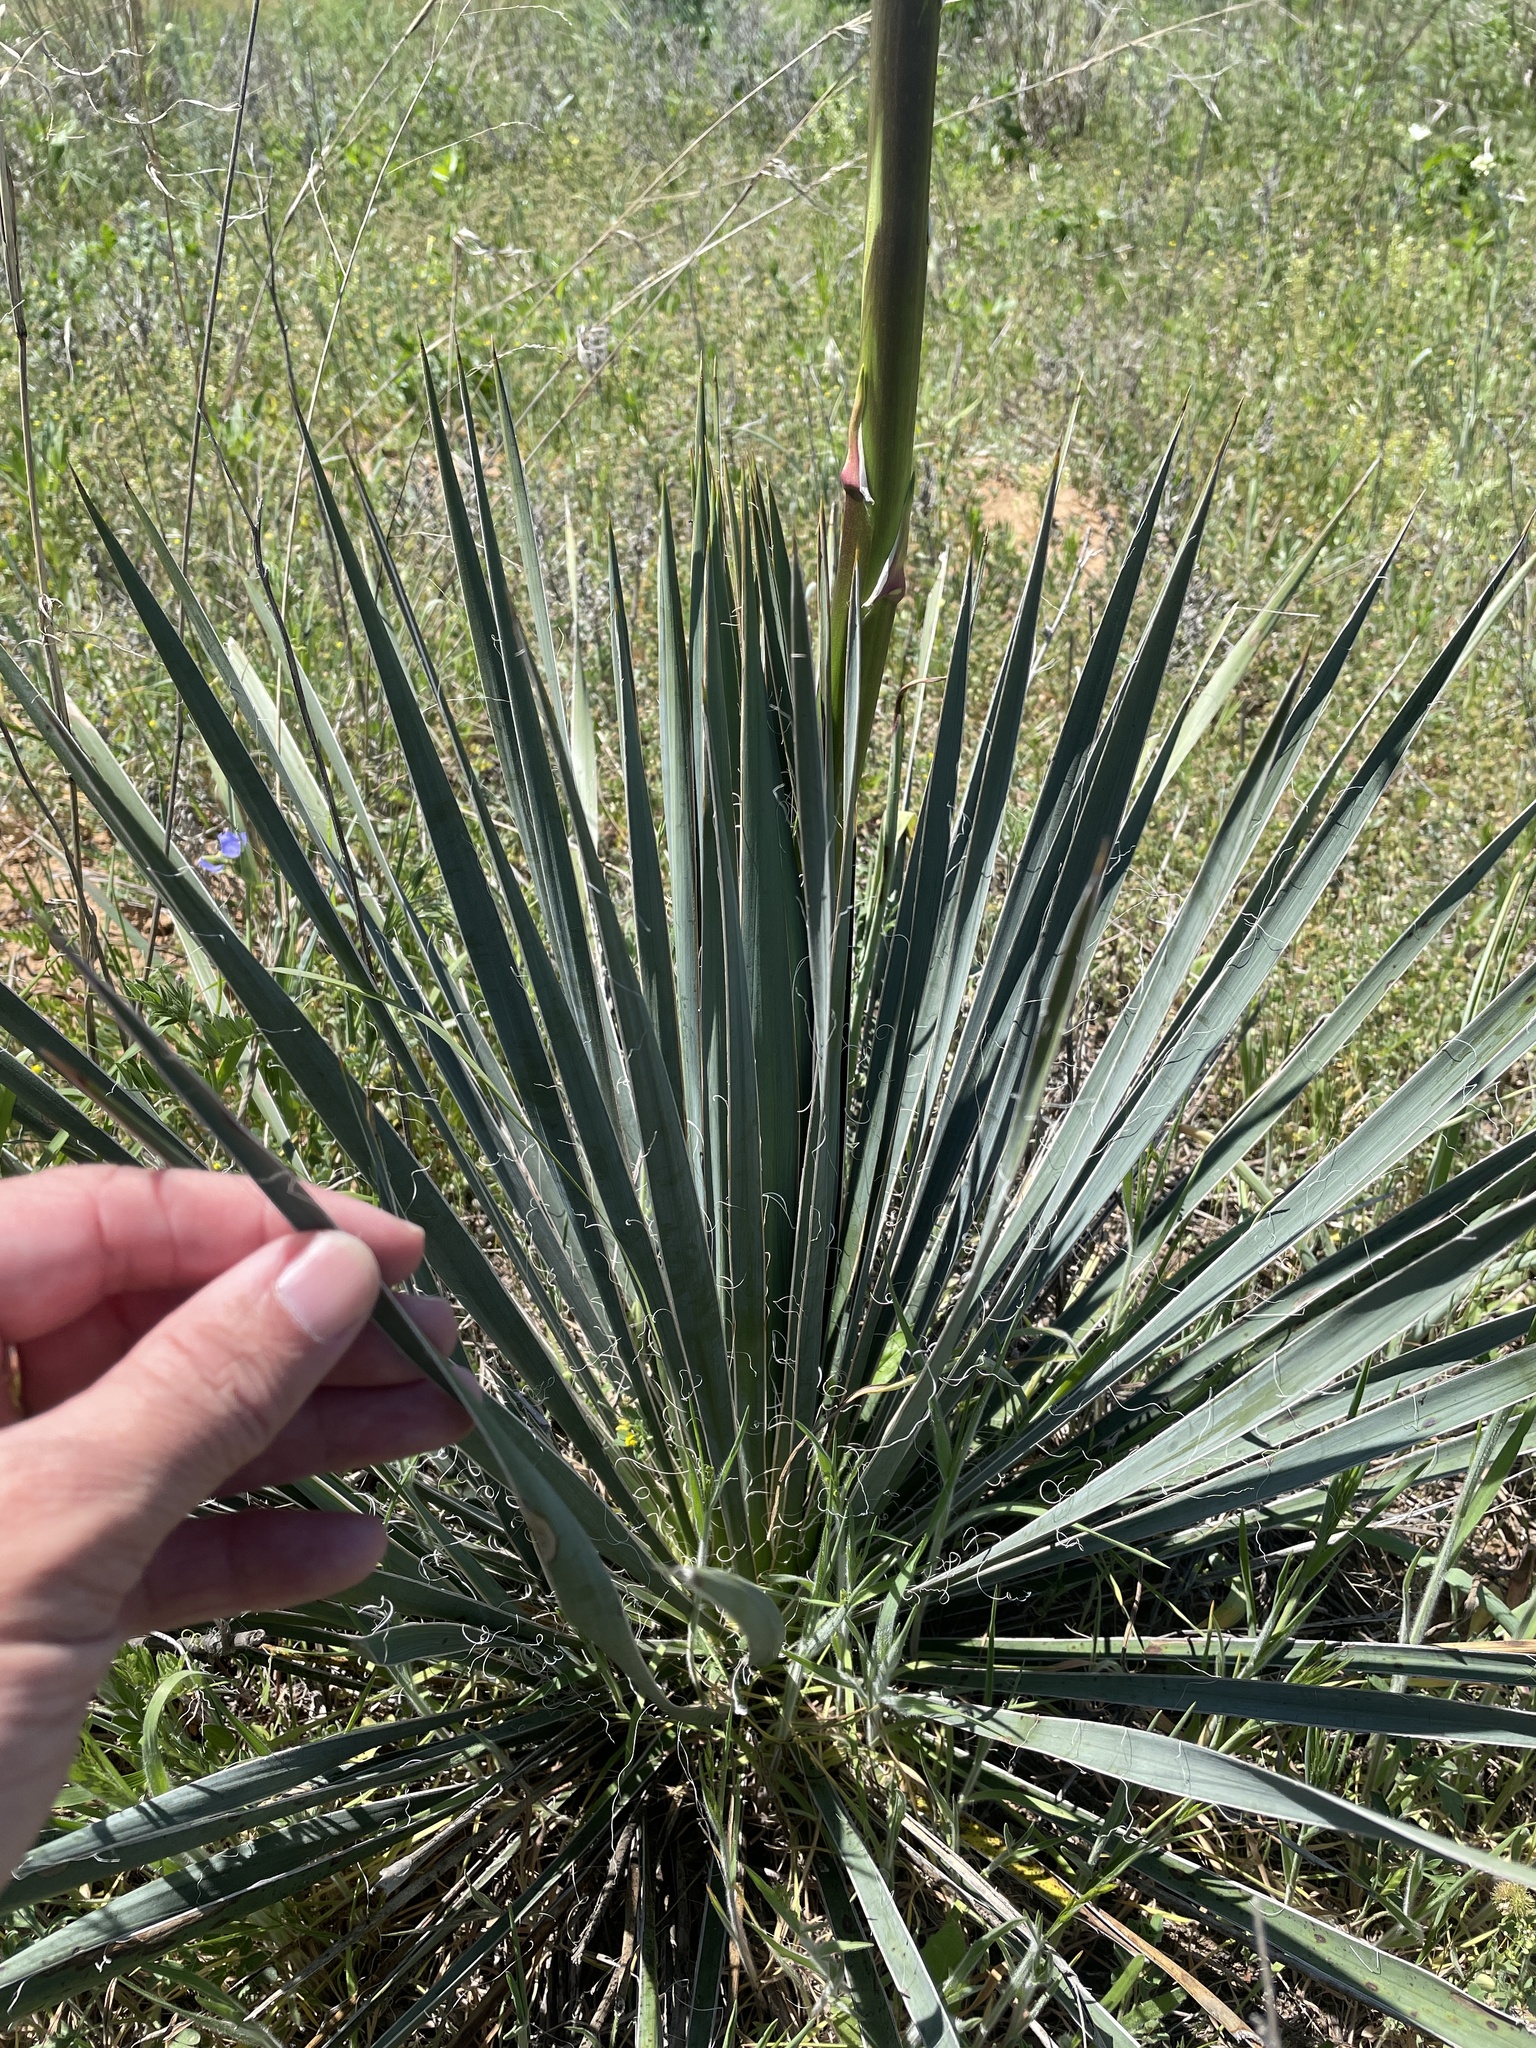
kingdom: Plantae
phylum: Tracheophyta
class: Liliopsida
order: Asparagales
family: Asparagaceae
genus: Yucca
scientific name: Yucca arkansana
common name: Arkansas yucca
